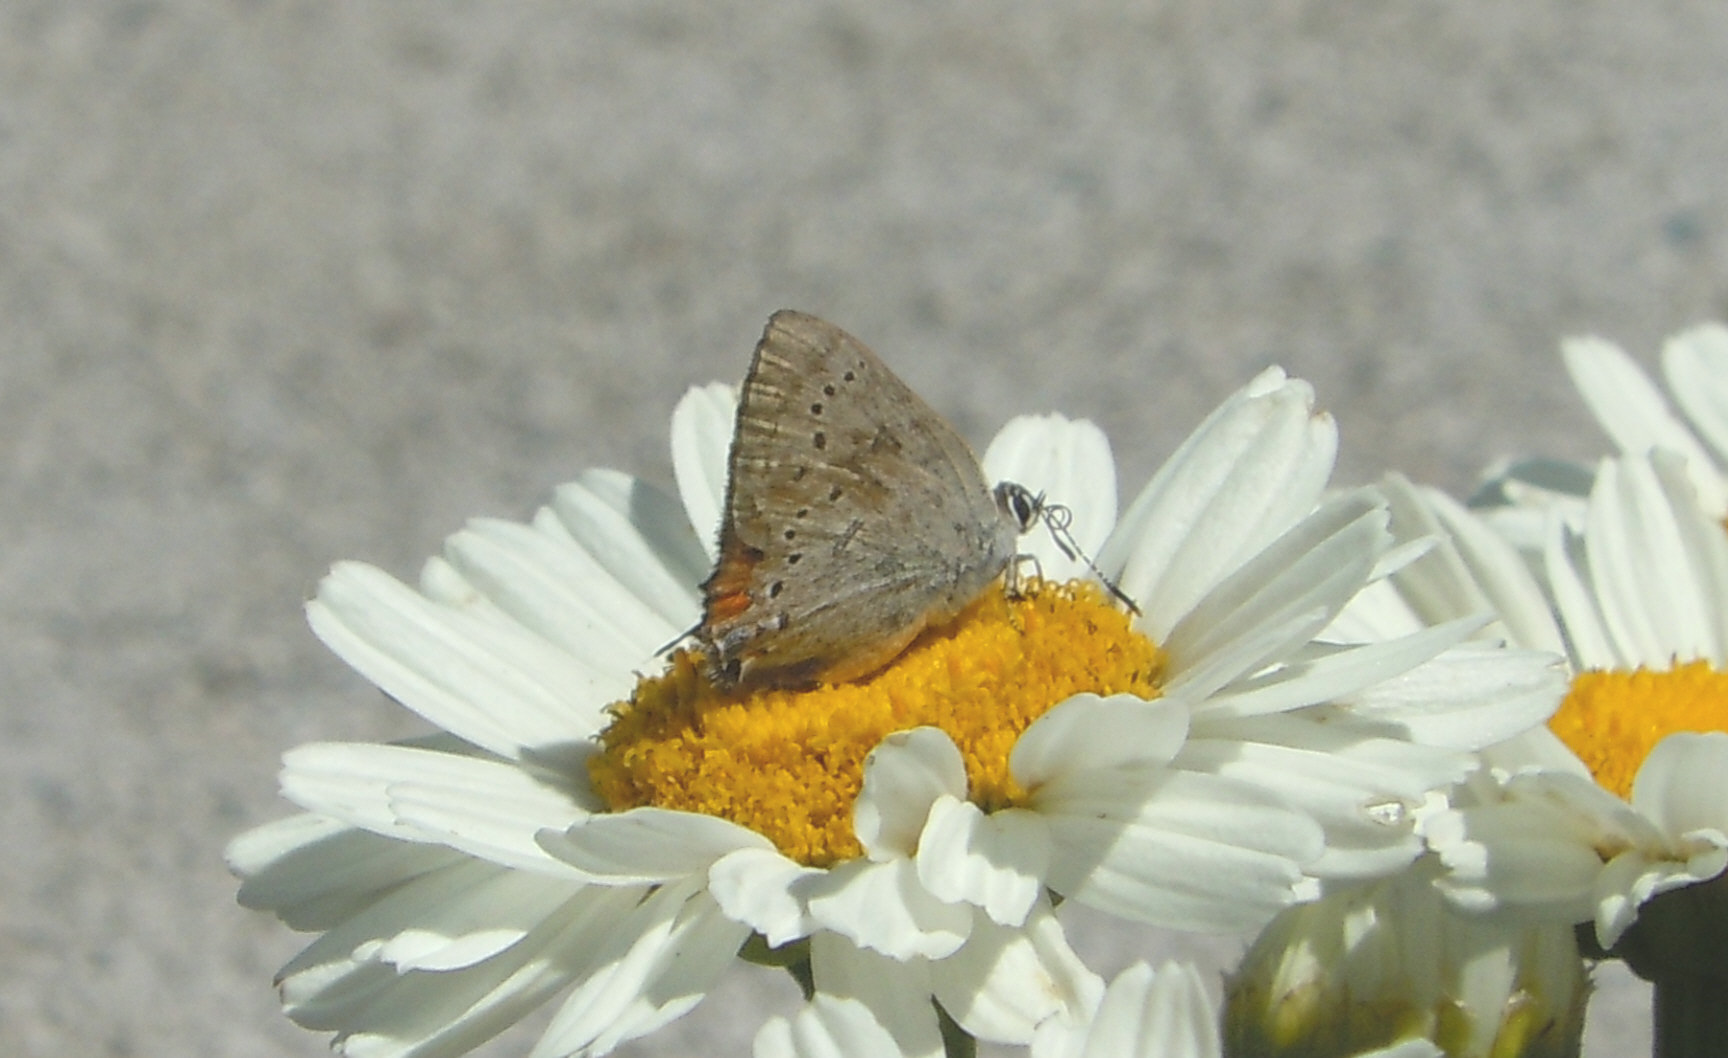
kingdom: Animalia
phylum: Arthropoda
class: Insecta
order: Lepidoptera
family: Lycaenidae
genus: Strymon
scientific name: Strymon sylvinus
